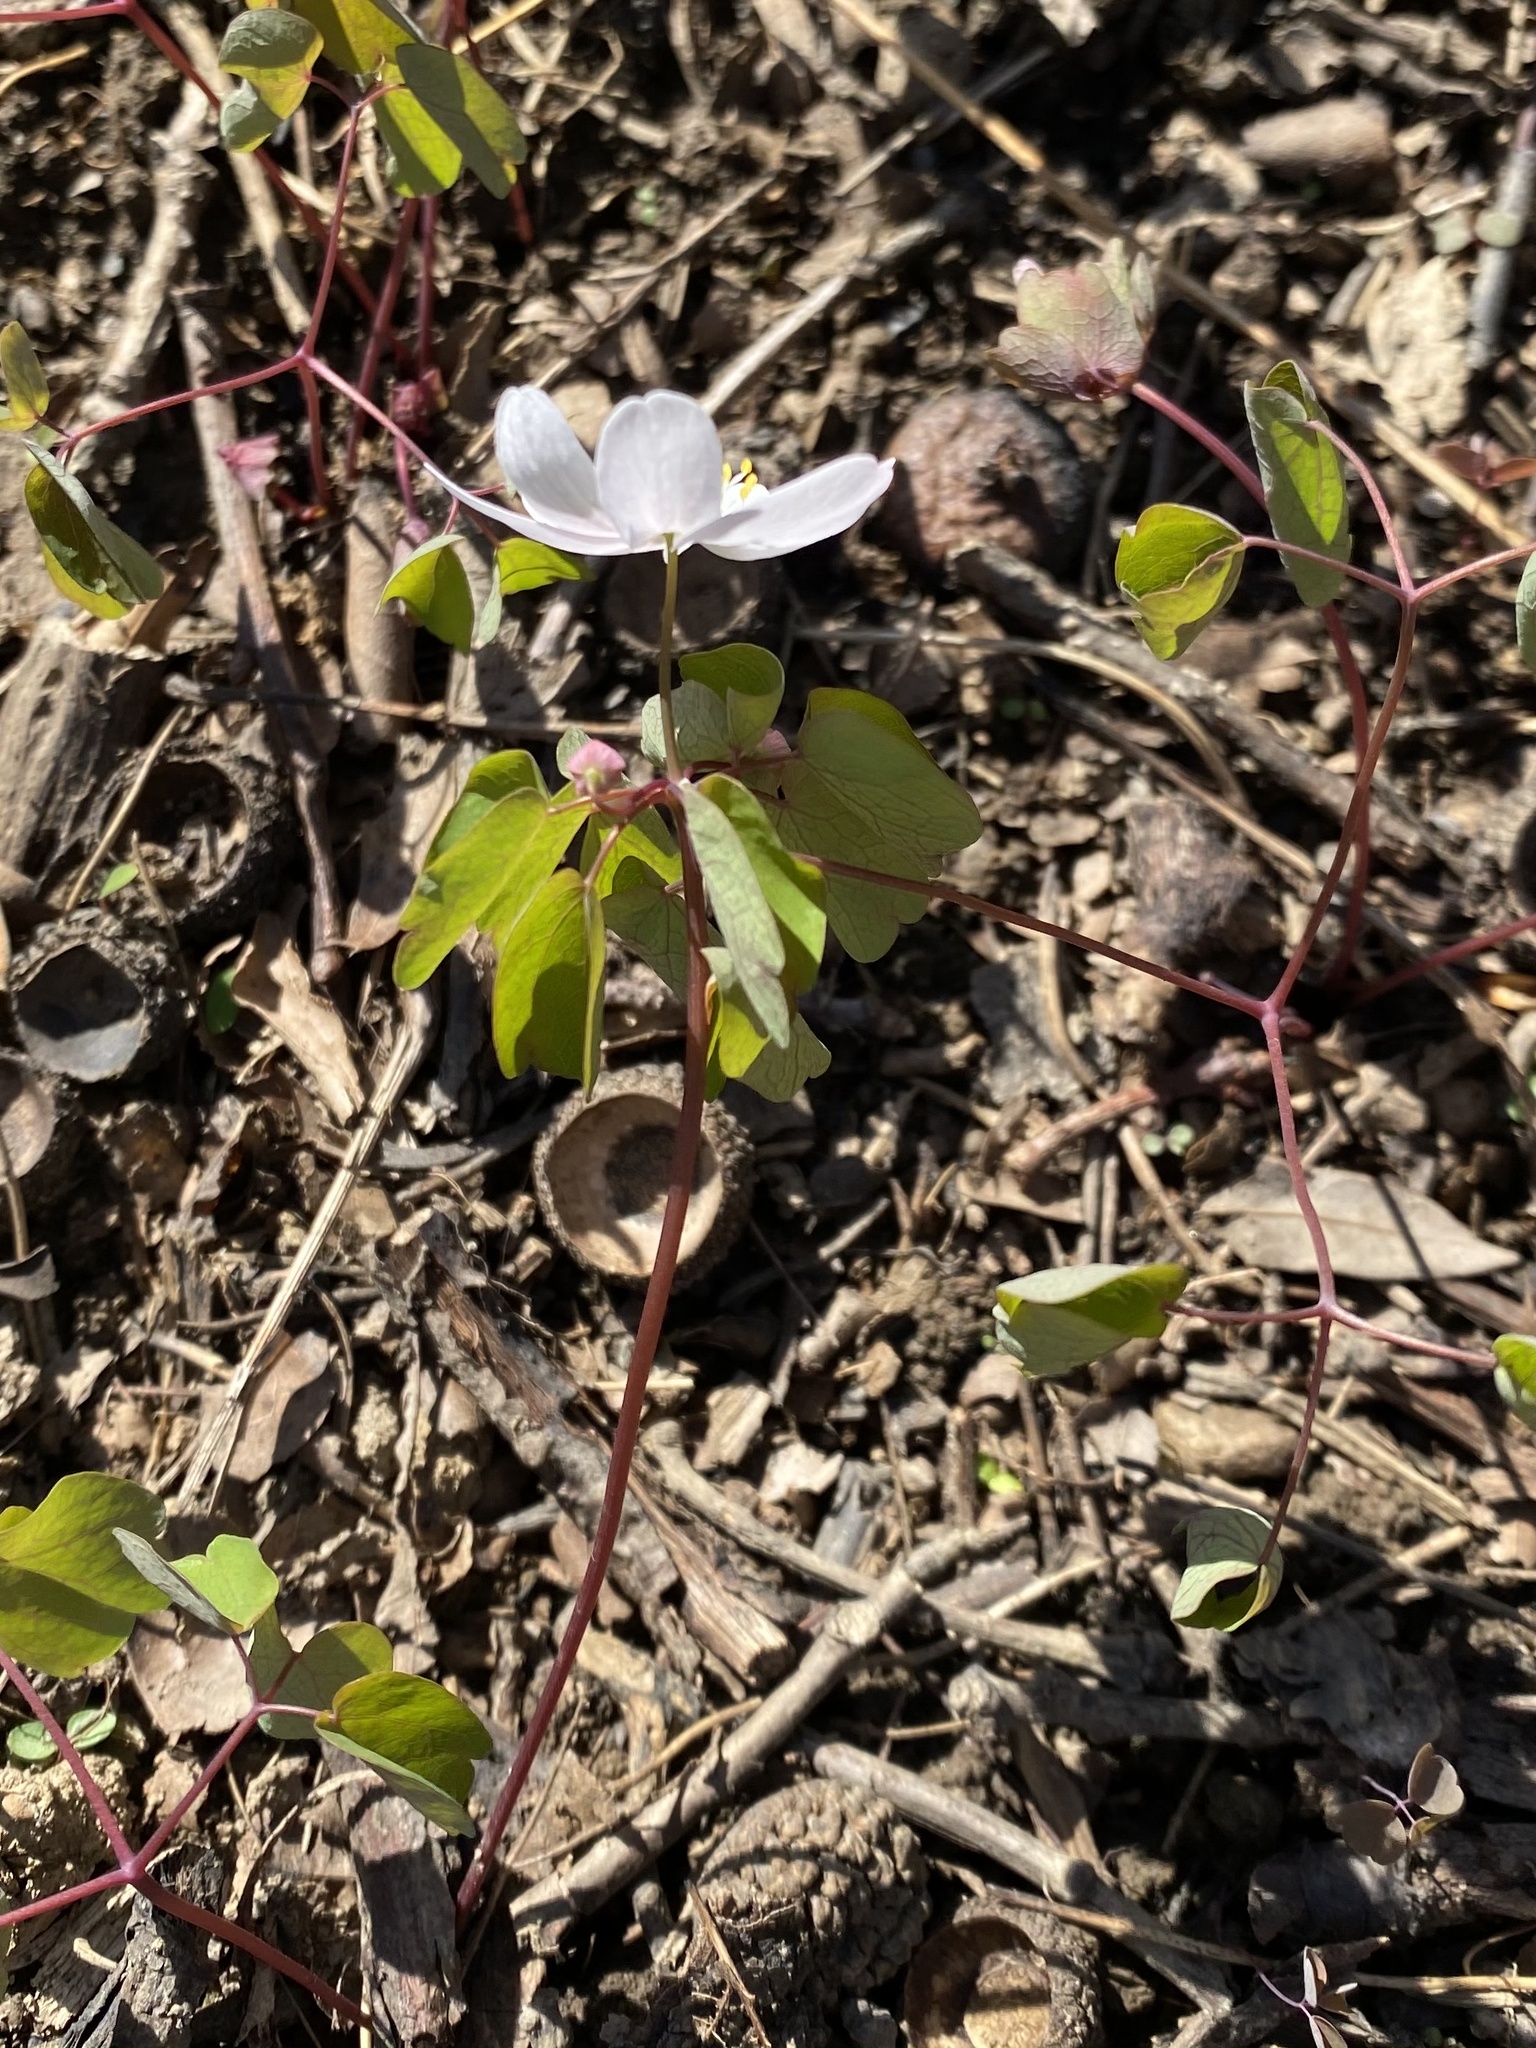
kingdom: Plantae
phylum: Tracheophyta
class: Magnoliopsida
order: Ranunculales
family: Ranunculaceae
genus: Thalictrum
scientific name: Thalictrum thalictroides
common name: Rue-anemone
